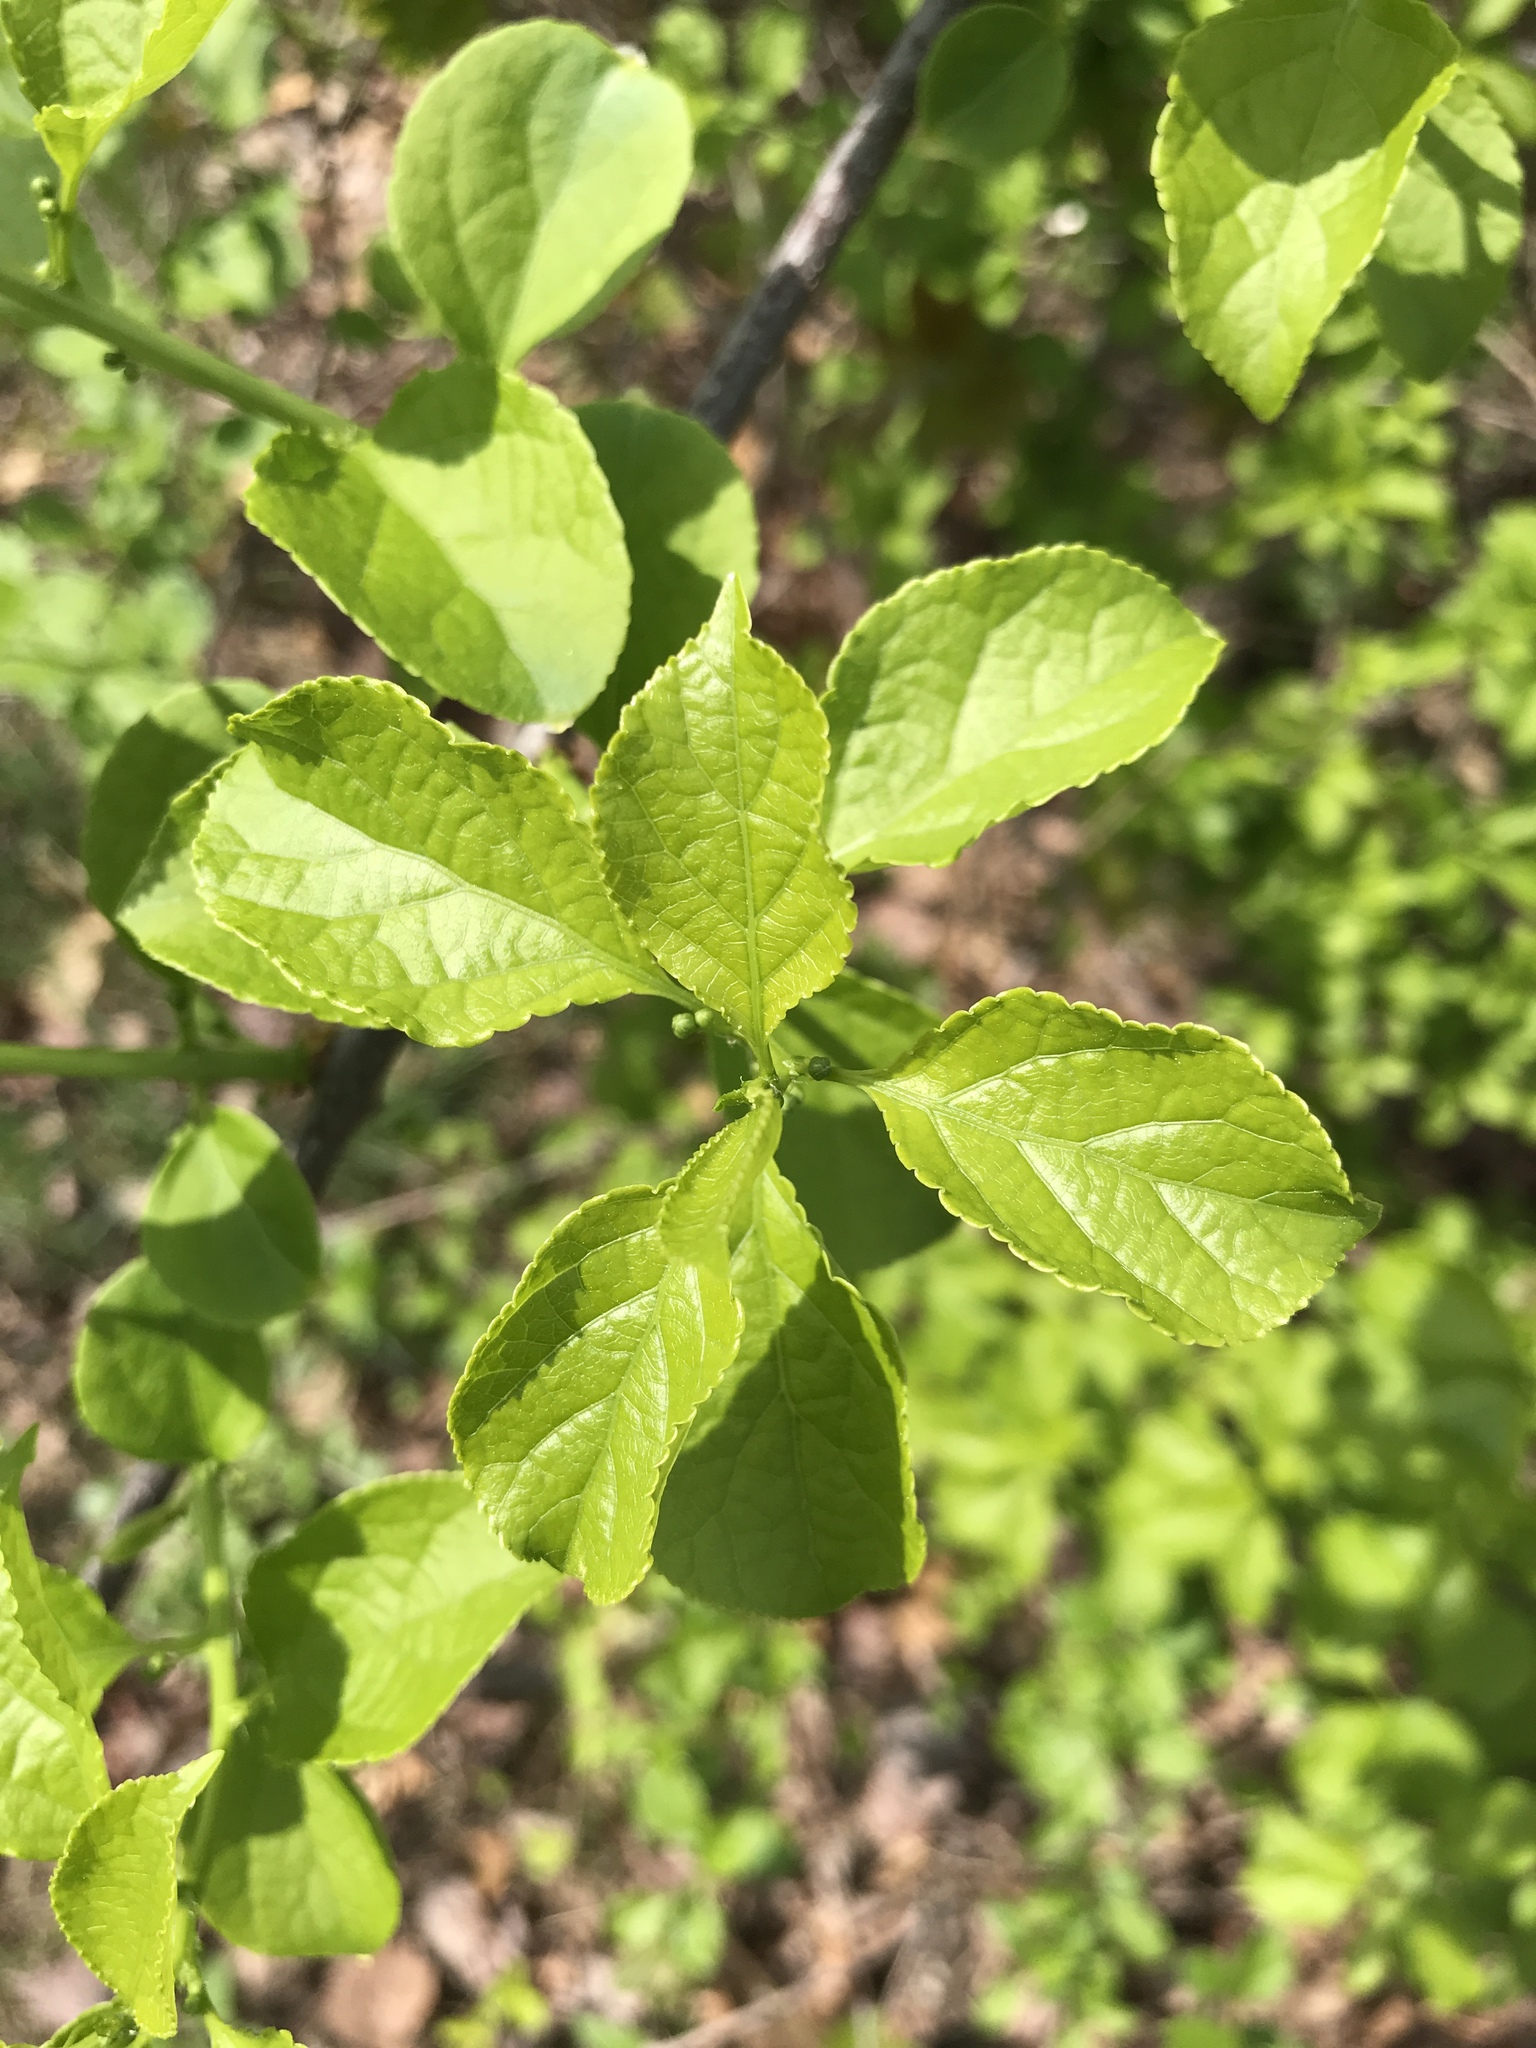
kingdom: Plantae
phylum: Tracheophyta
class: Magnoliopsida
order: Celastrales
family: Celastraceae
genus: Celastrus
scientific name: Celastrus orbiculatus
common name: Oriental bittersweet
